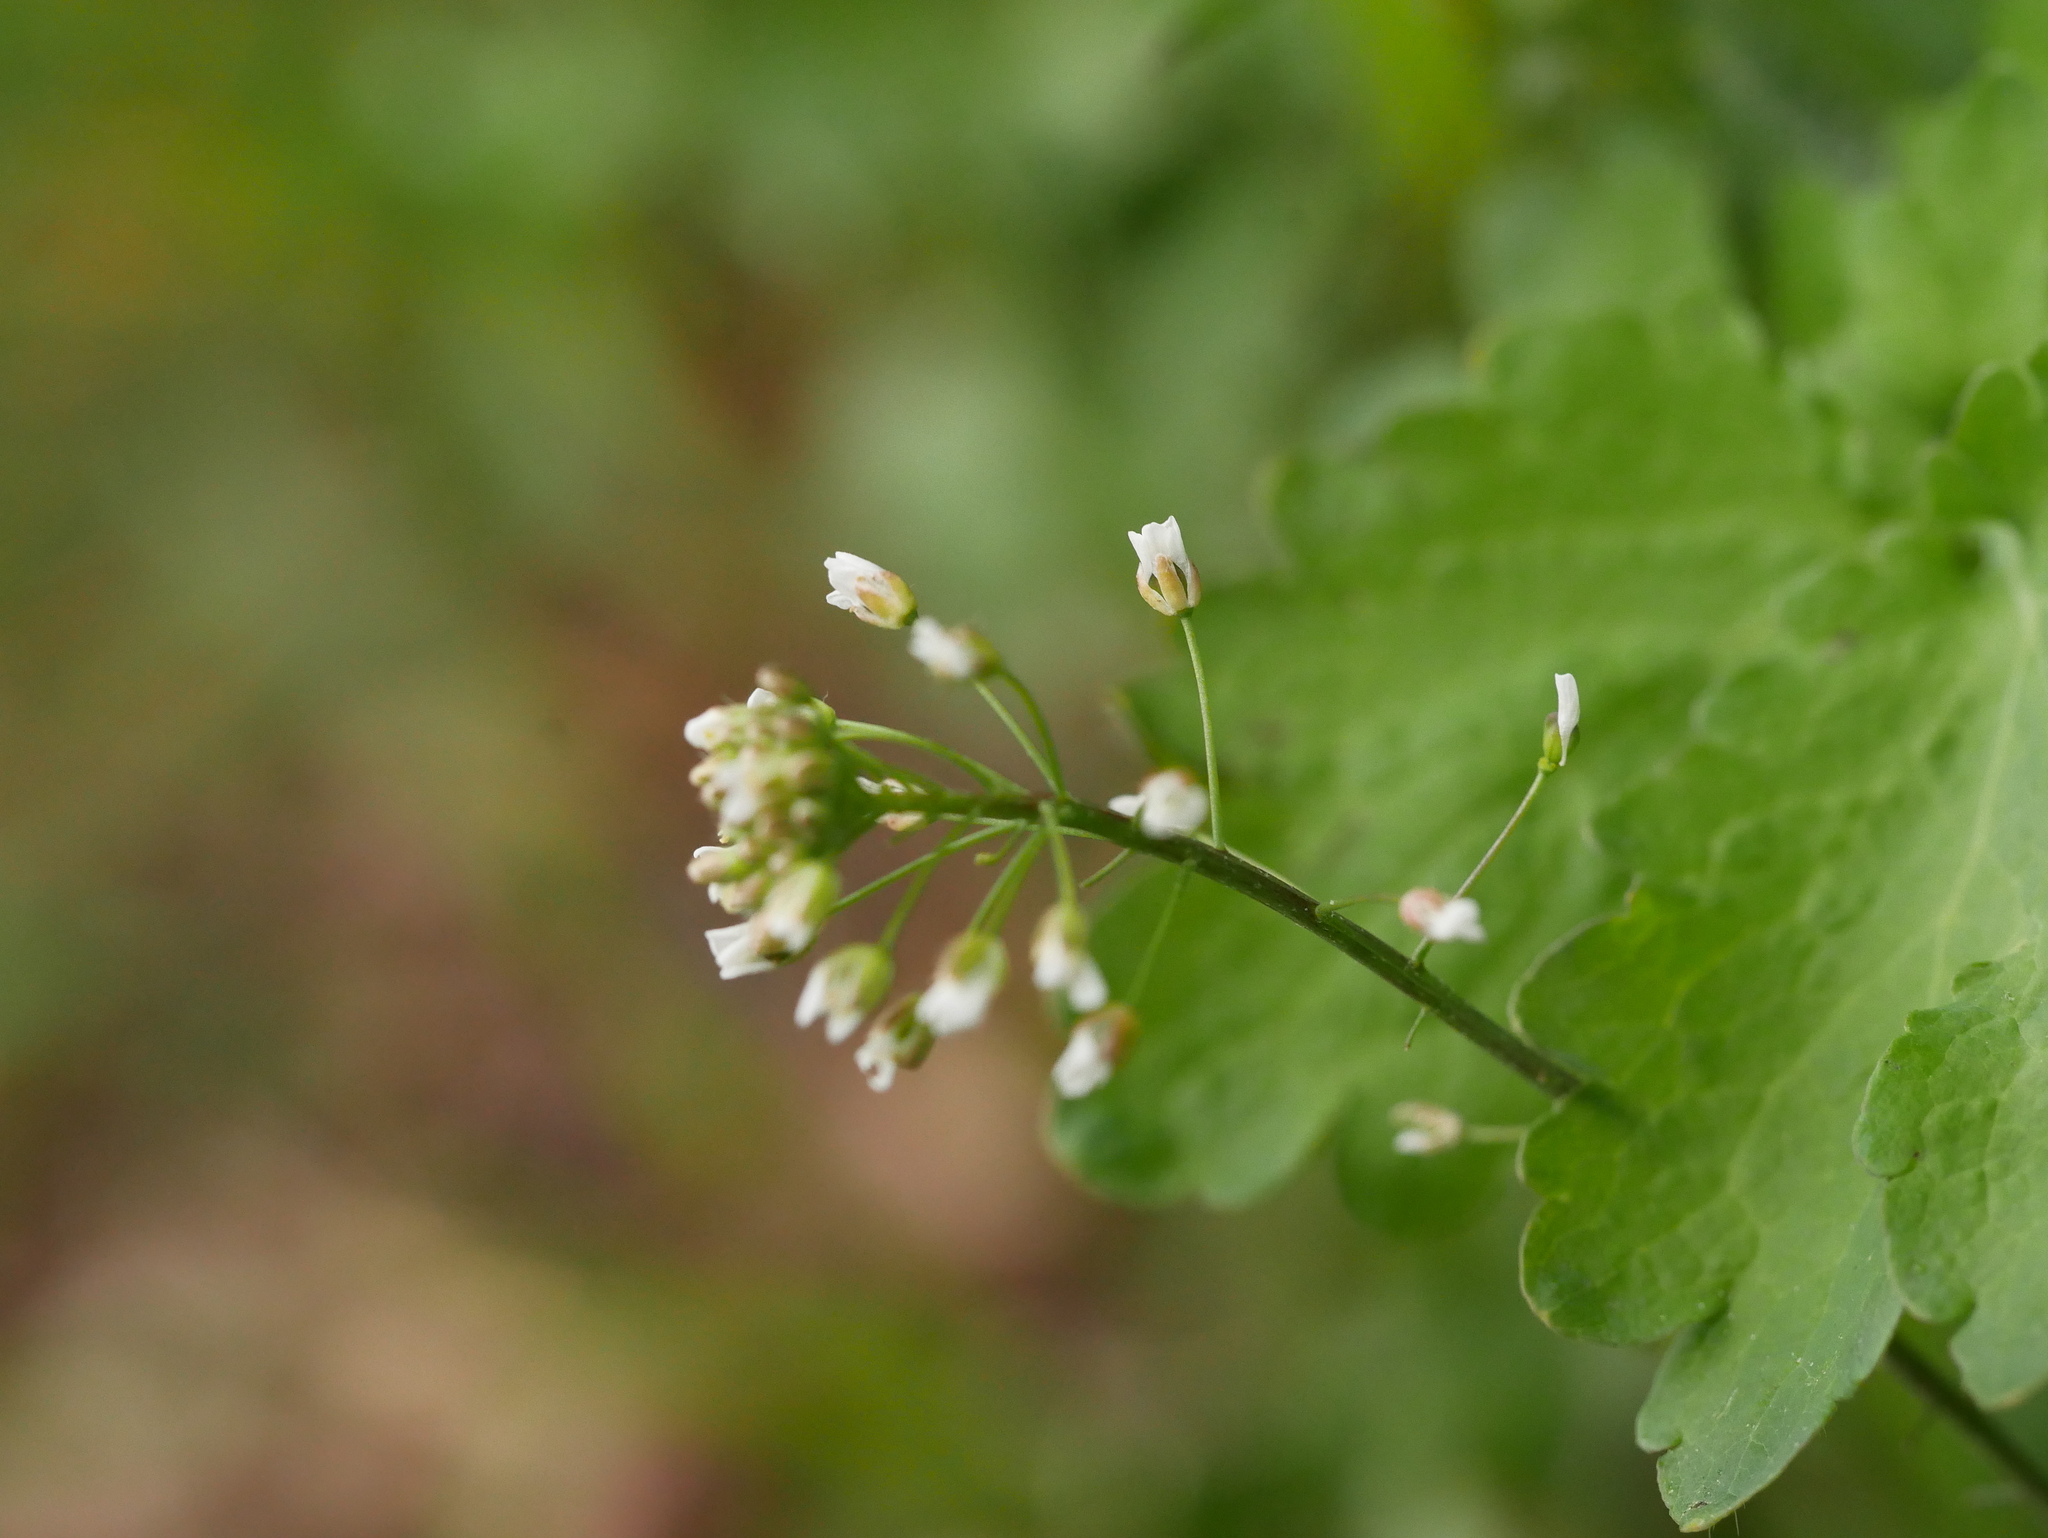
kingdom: Plantae
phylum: Tracheophyta
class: Magnoliopsida
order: Brassicales
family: Brassicaceae
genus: Capsella
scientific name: Capsella bursa-pastoris
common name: Shepherd's purse
